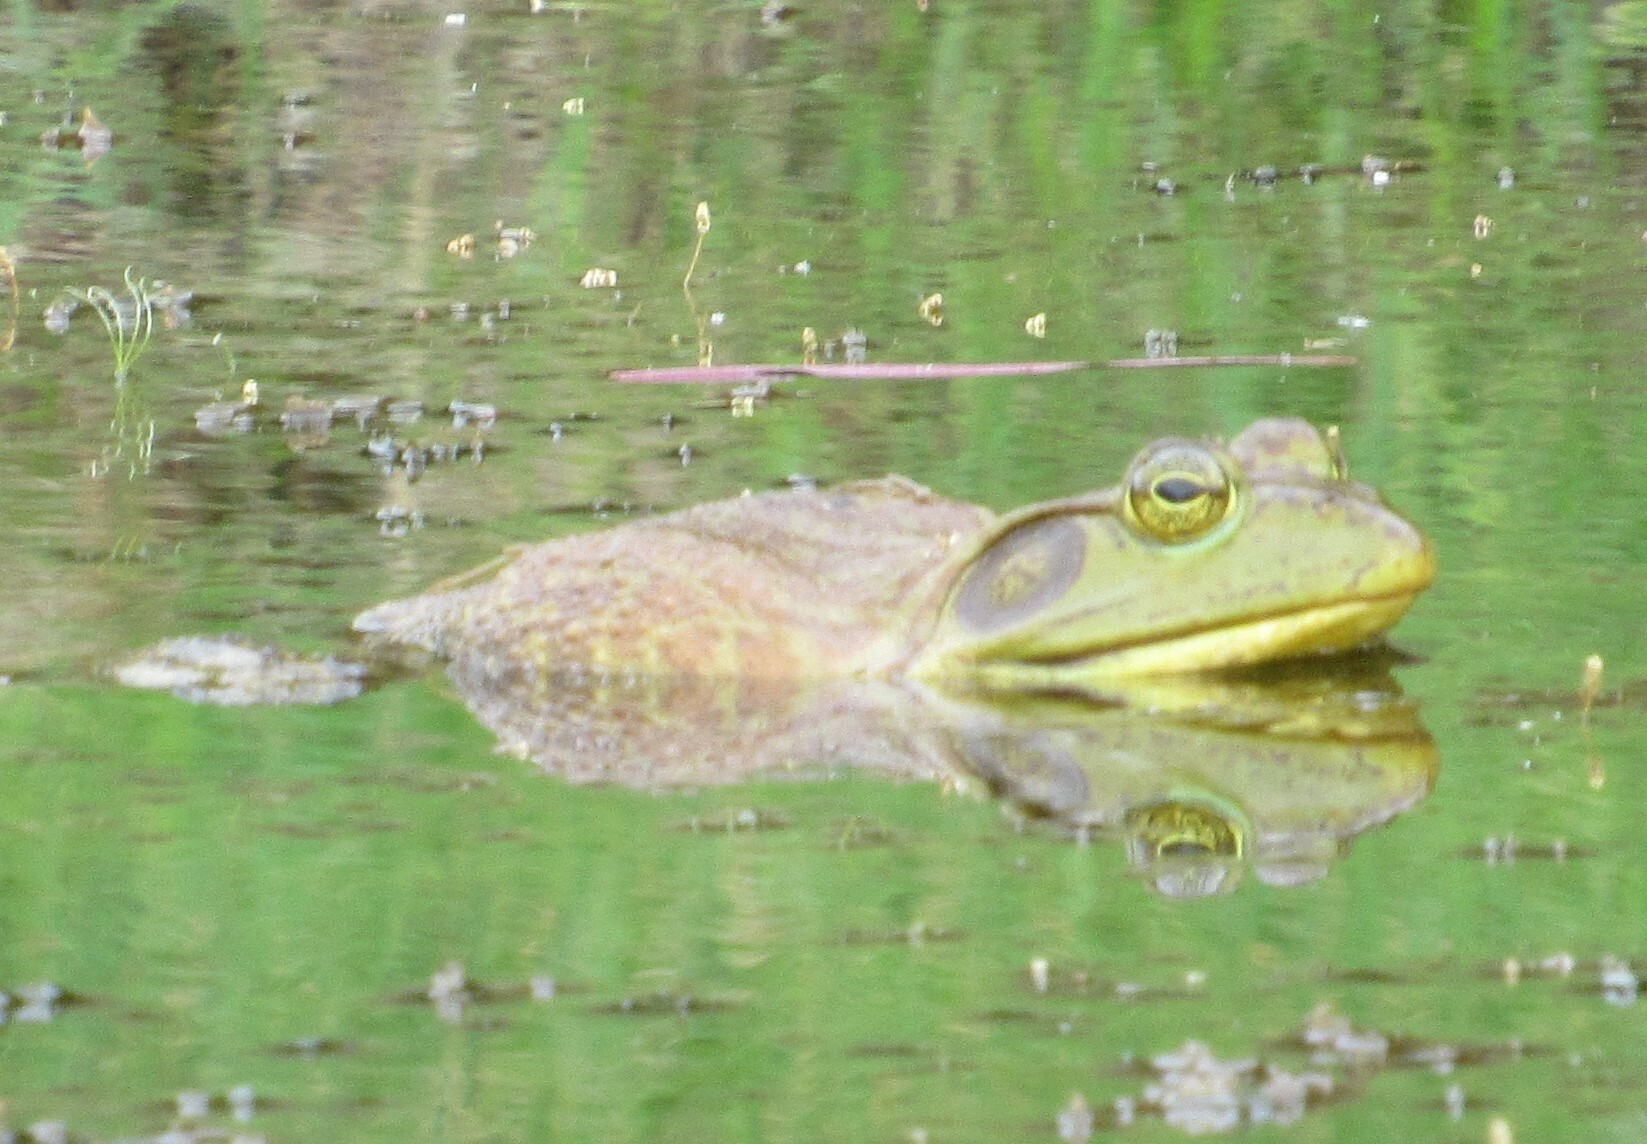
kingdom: Animalia
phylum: Chordata
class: Amphibia
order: Anura
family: Ranidae
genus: Lithobates
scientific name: Lithobates catesbeianus
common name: American bullfrog
